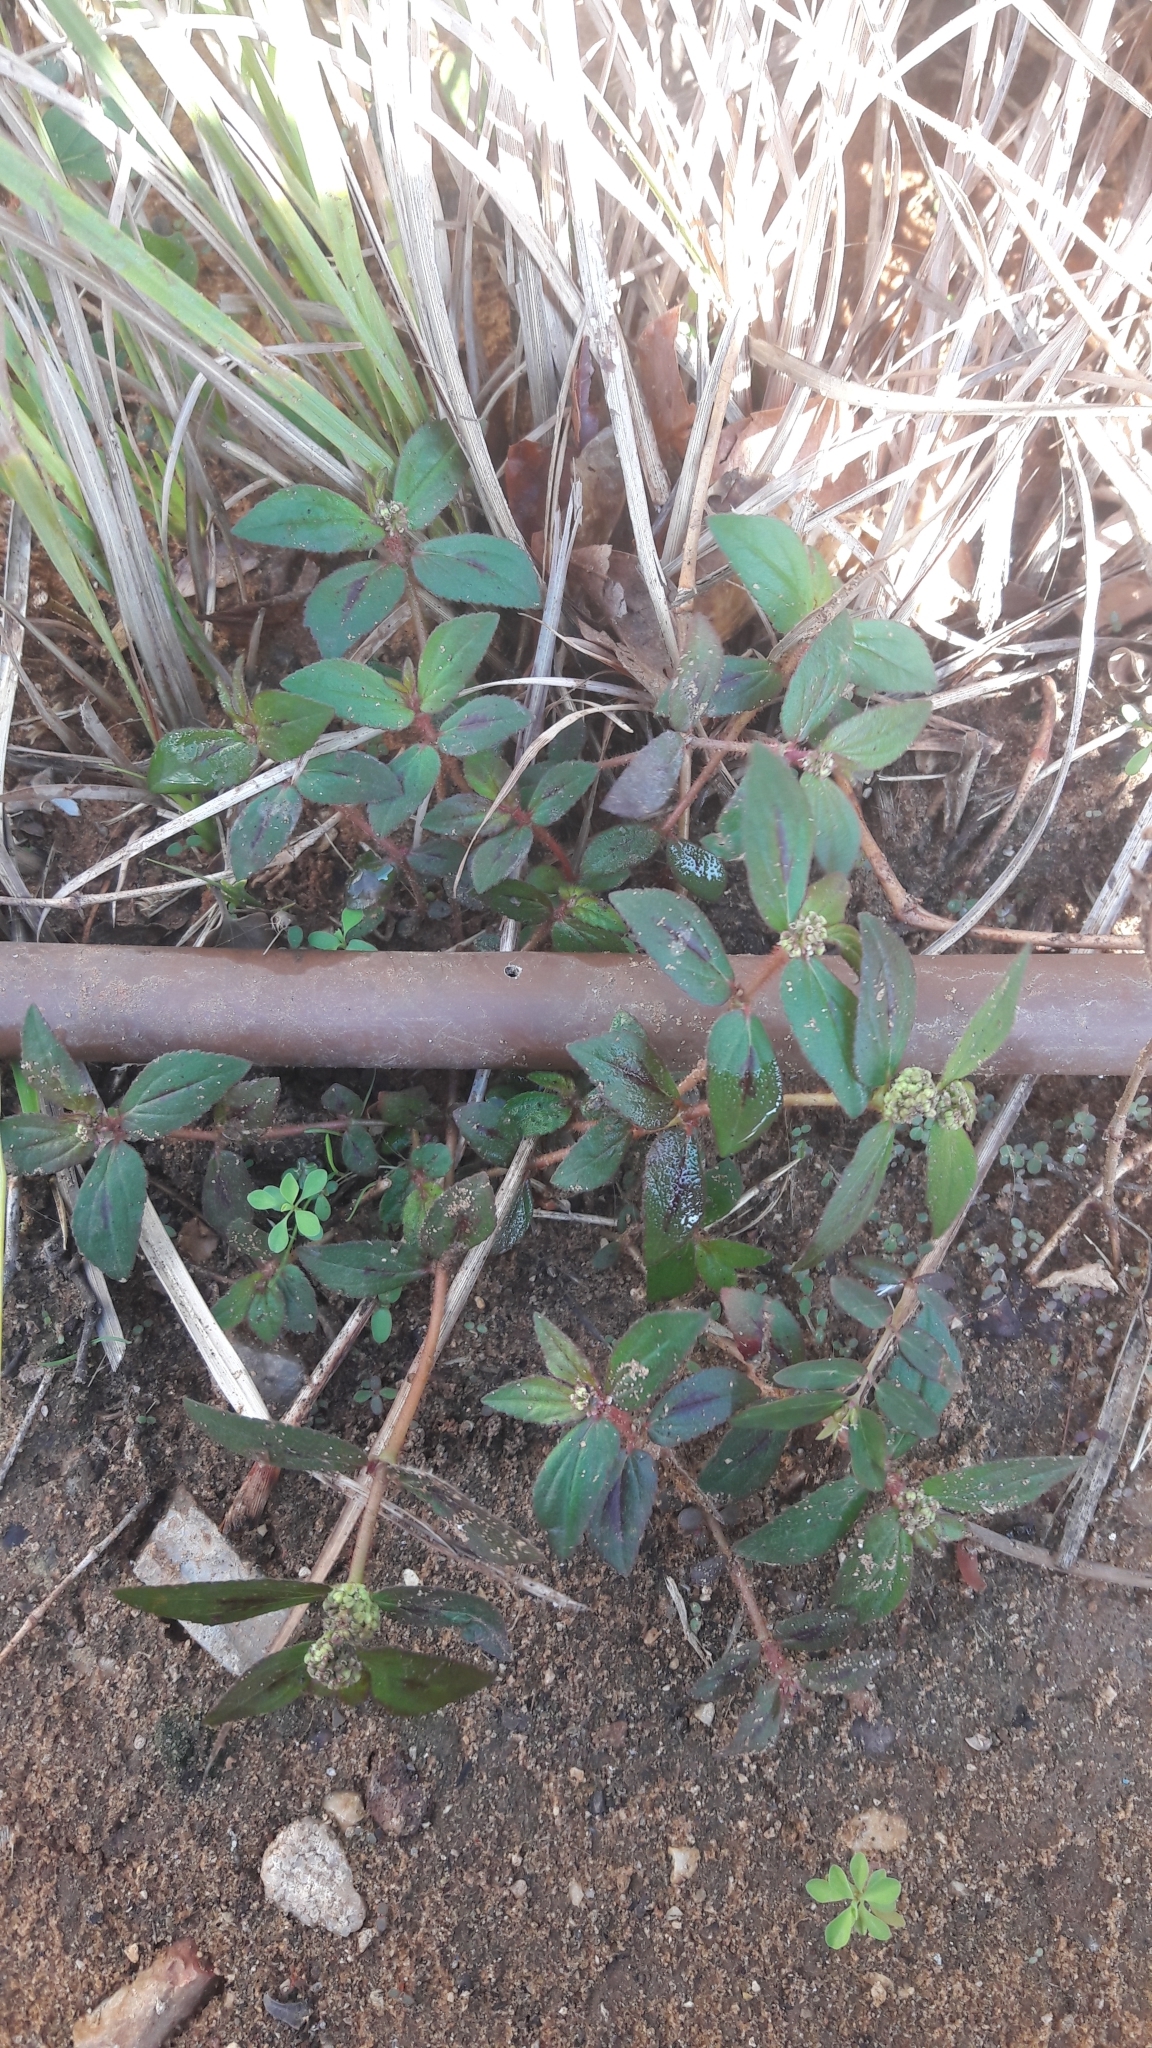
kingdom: Plantae
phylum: Tracheophyta
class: Magnoliopsida
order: Malpighiales
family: Euphorbiaceae
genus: Euphorbia
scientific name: Euphorbia hirta
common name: Pillpod sandmat
